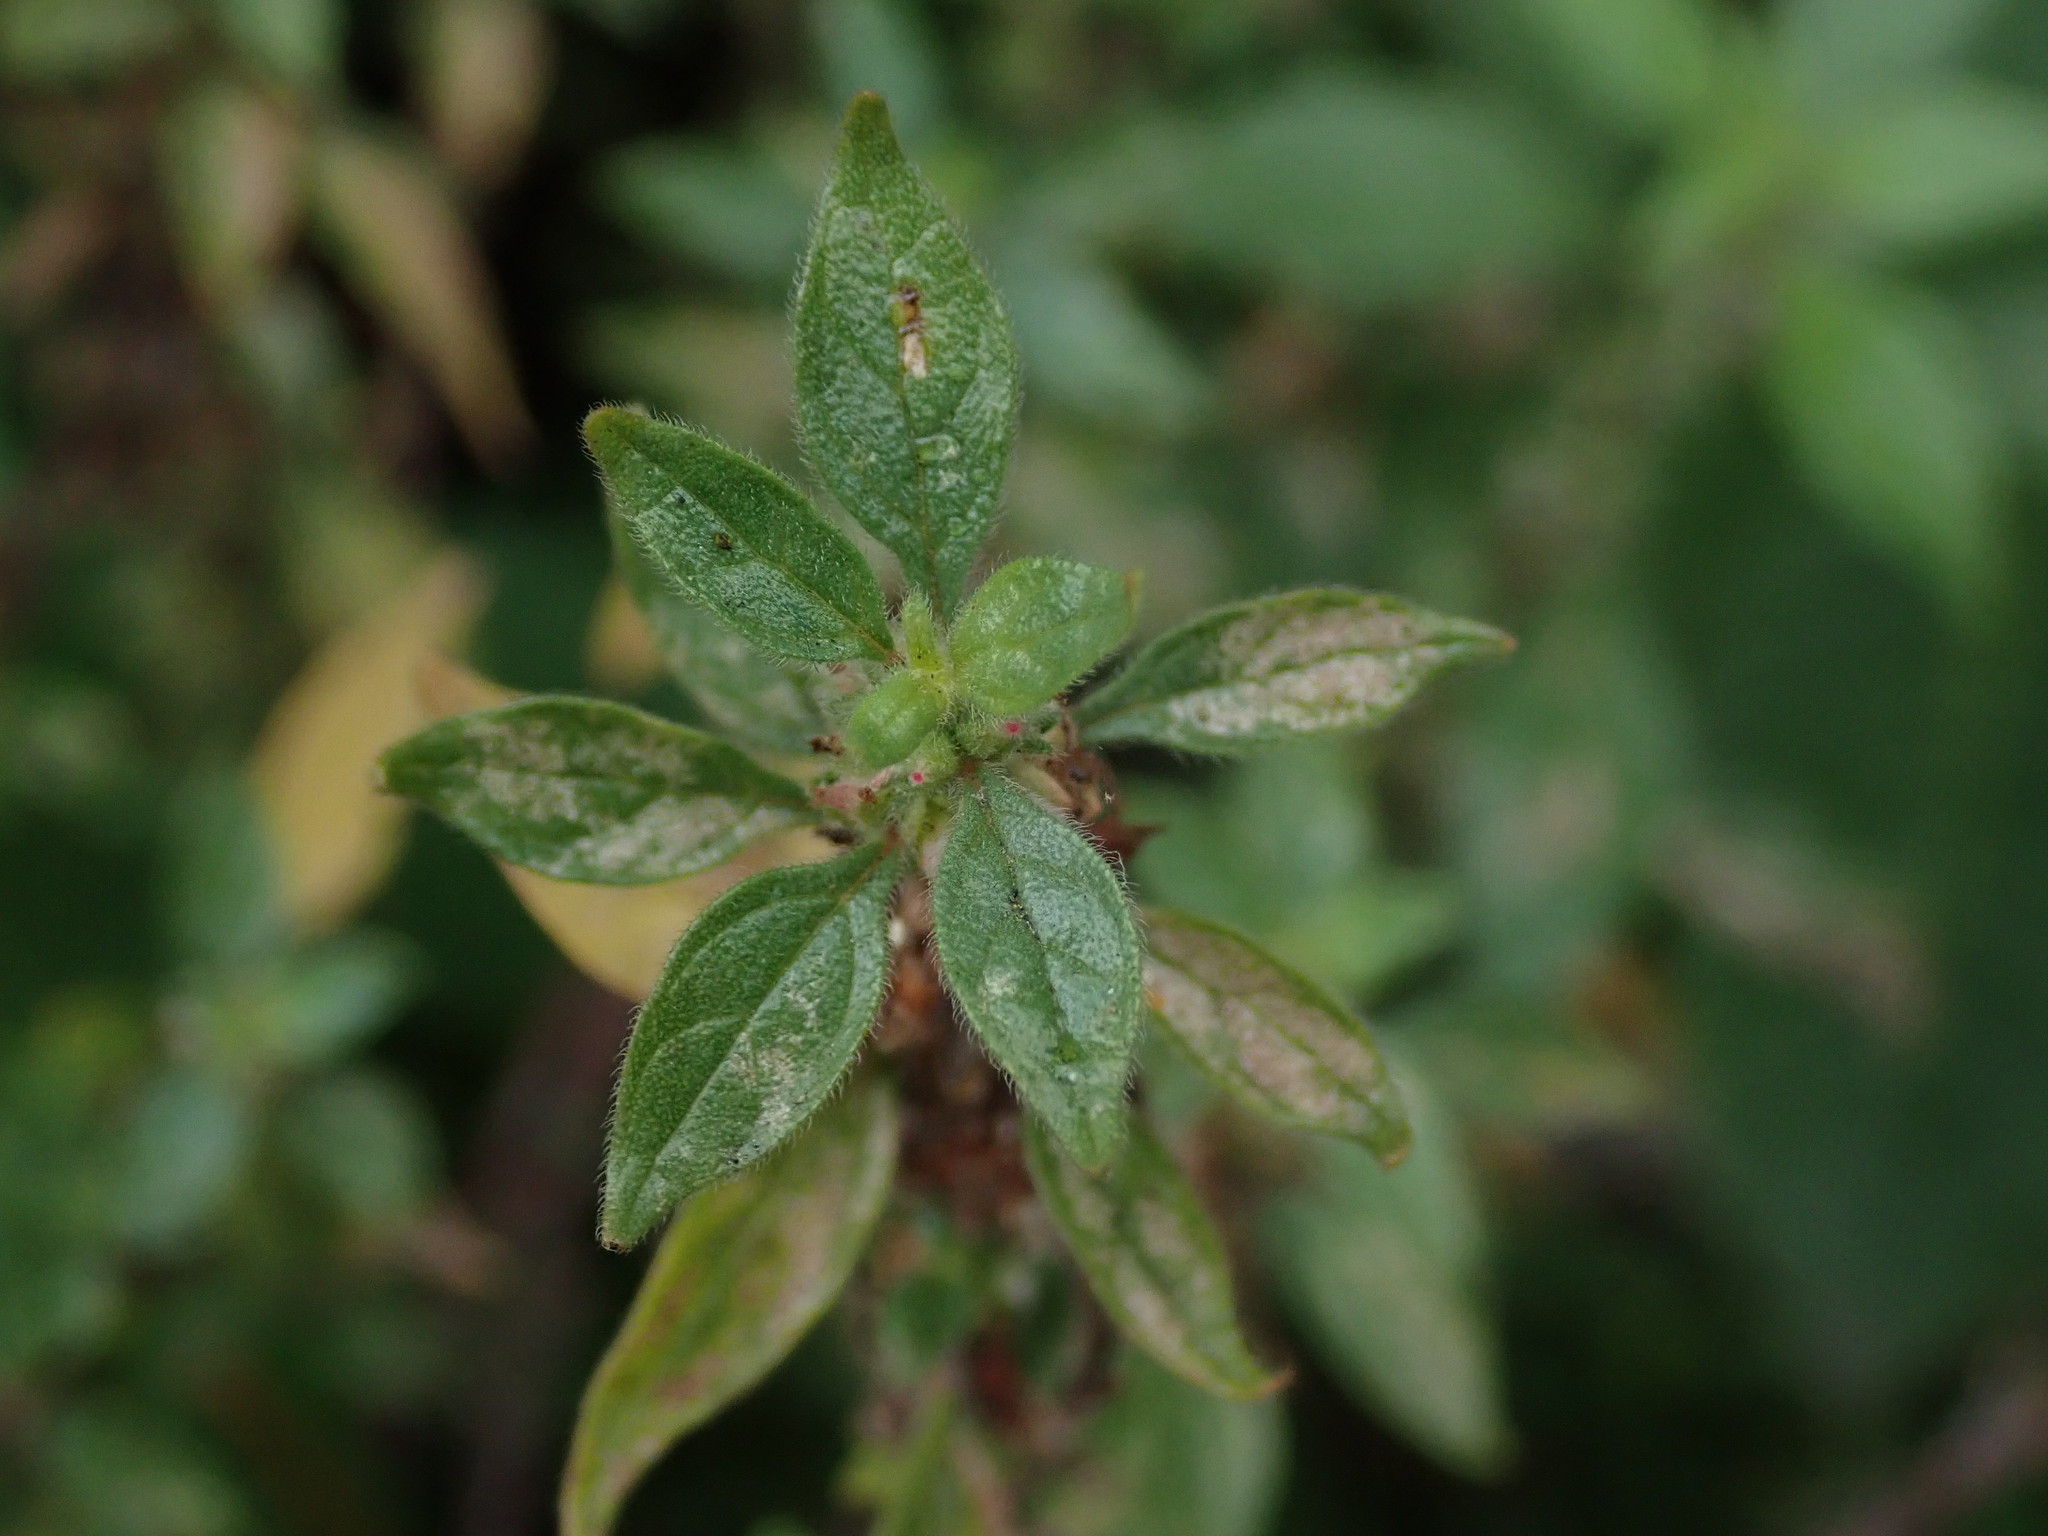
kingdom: Plantae
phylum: Tracheophyta
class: Magnoliopsida
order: Rosales
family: Urticaceae
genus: Parietaria
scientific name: Parietaria judaica
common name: Pellitory-of-the-wall
